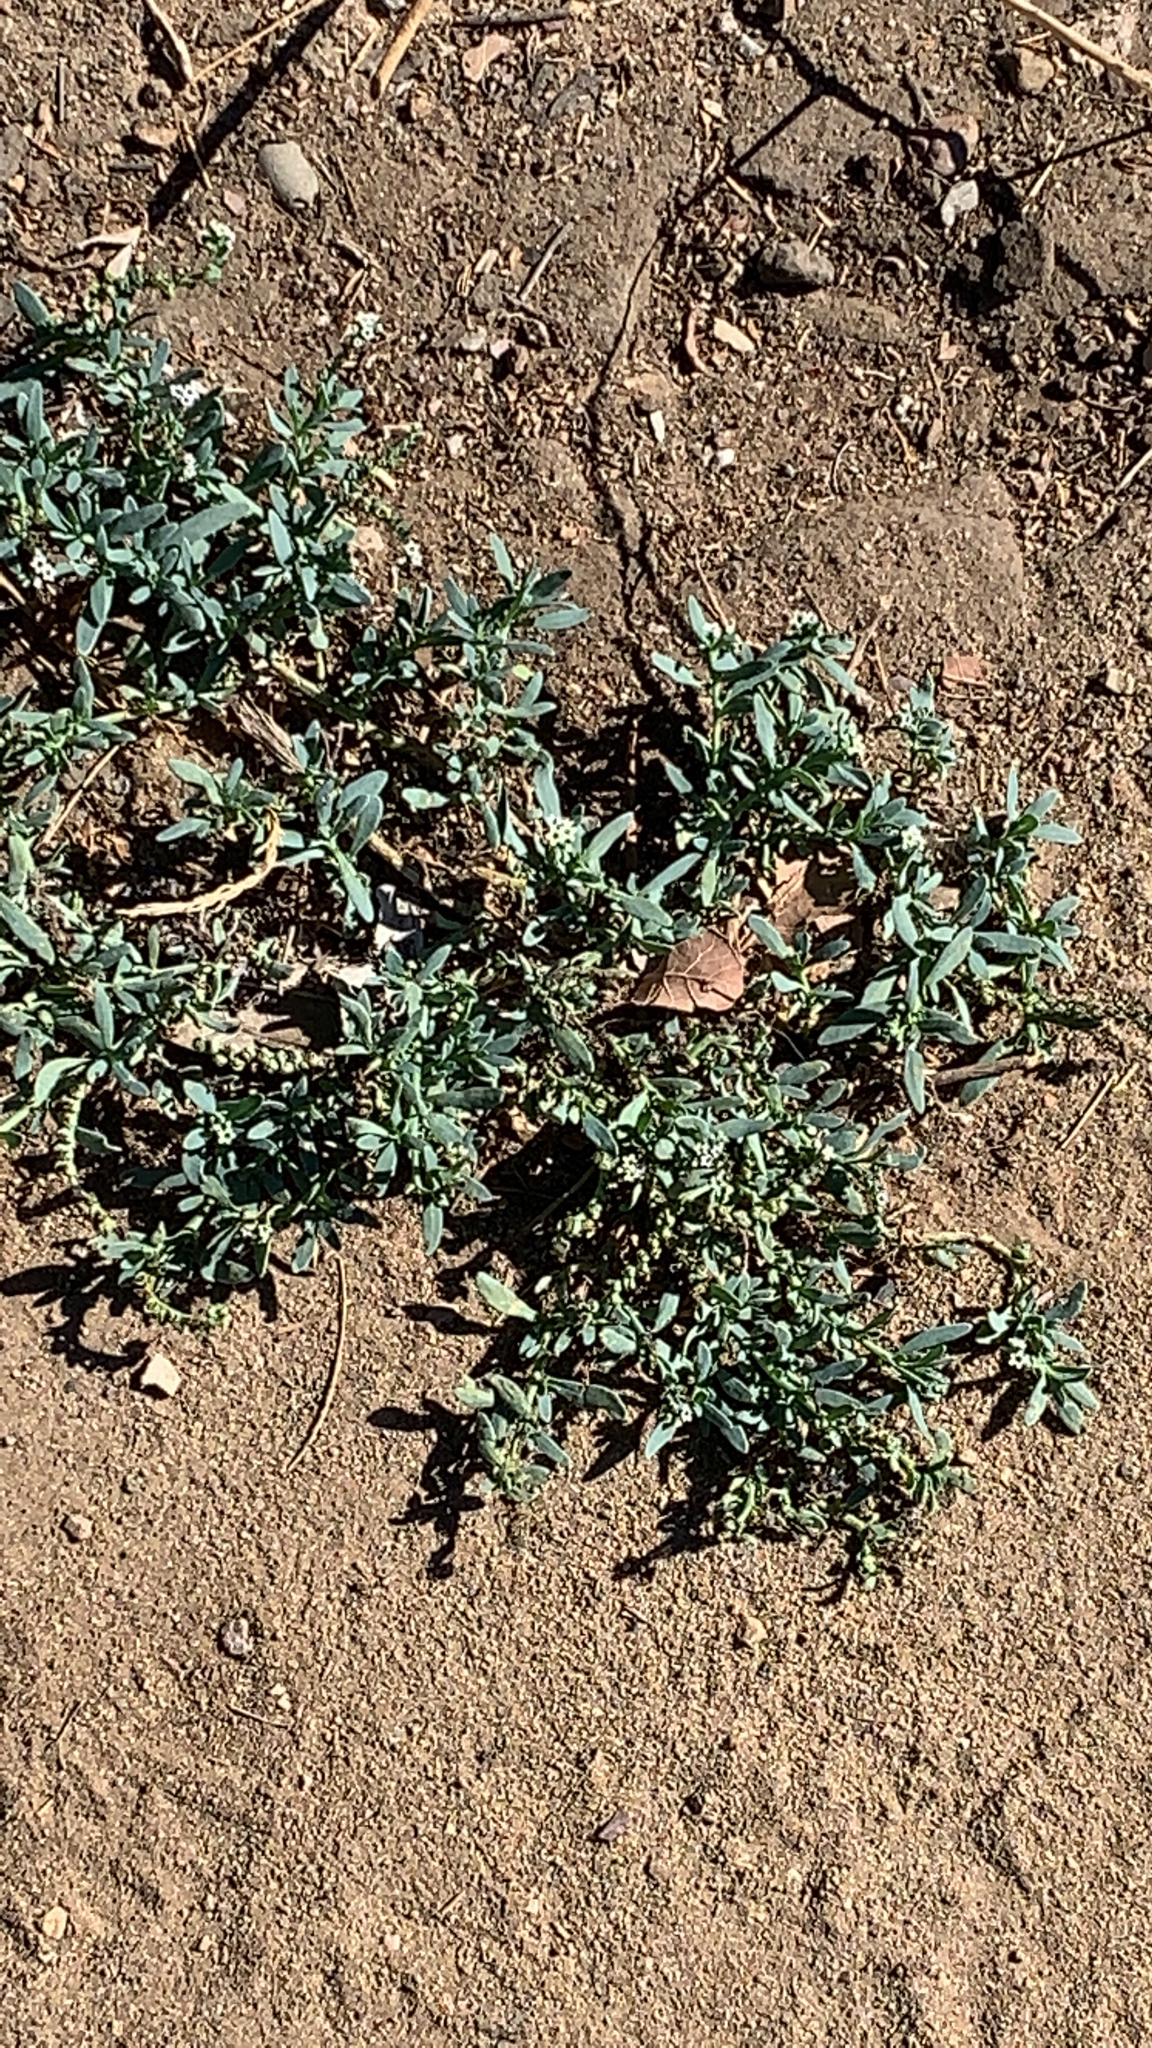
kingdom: Plantae
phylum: Tracheophyta
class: Magnoliopsida
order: Boraginales
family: Heliotropiaceae
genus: Heliotropium
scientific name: Heliotropium curassavicum
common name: Seaside heliotrope
